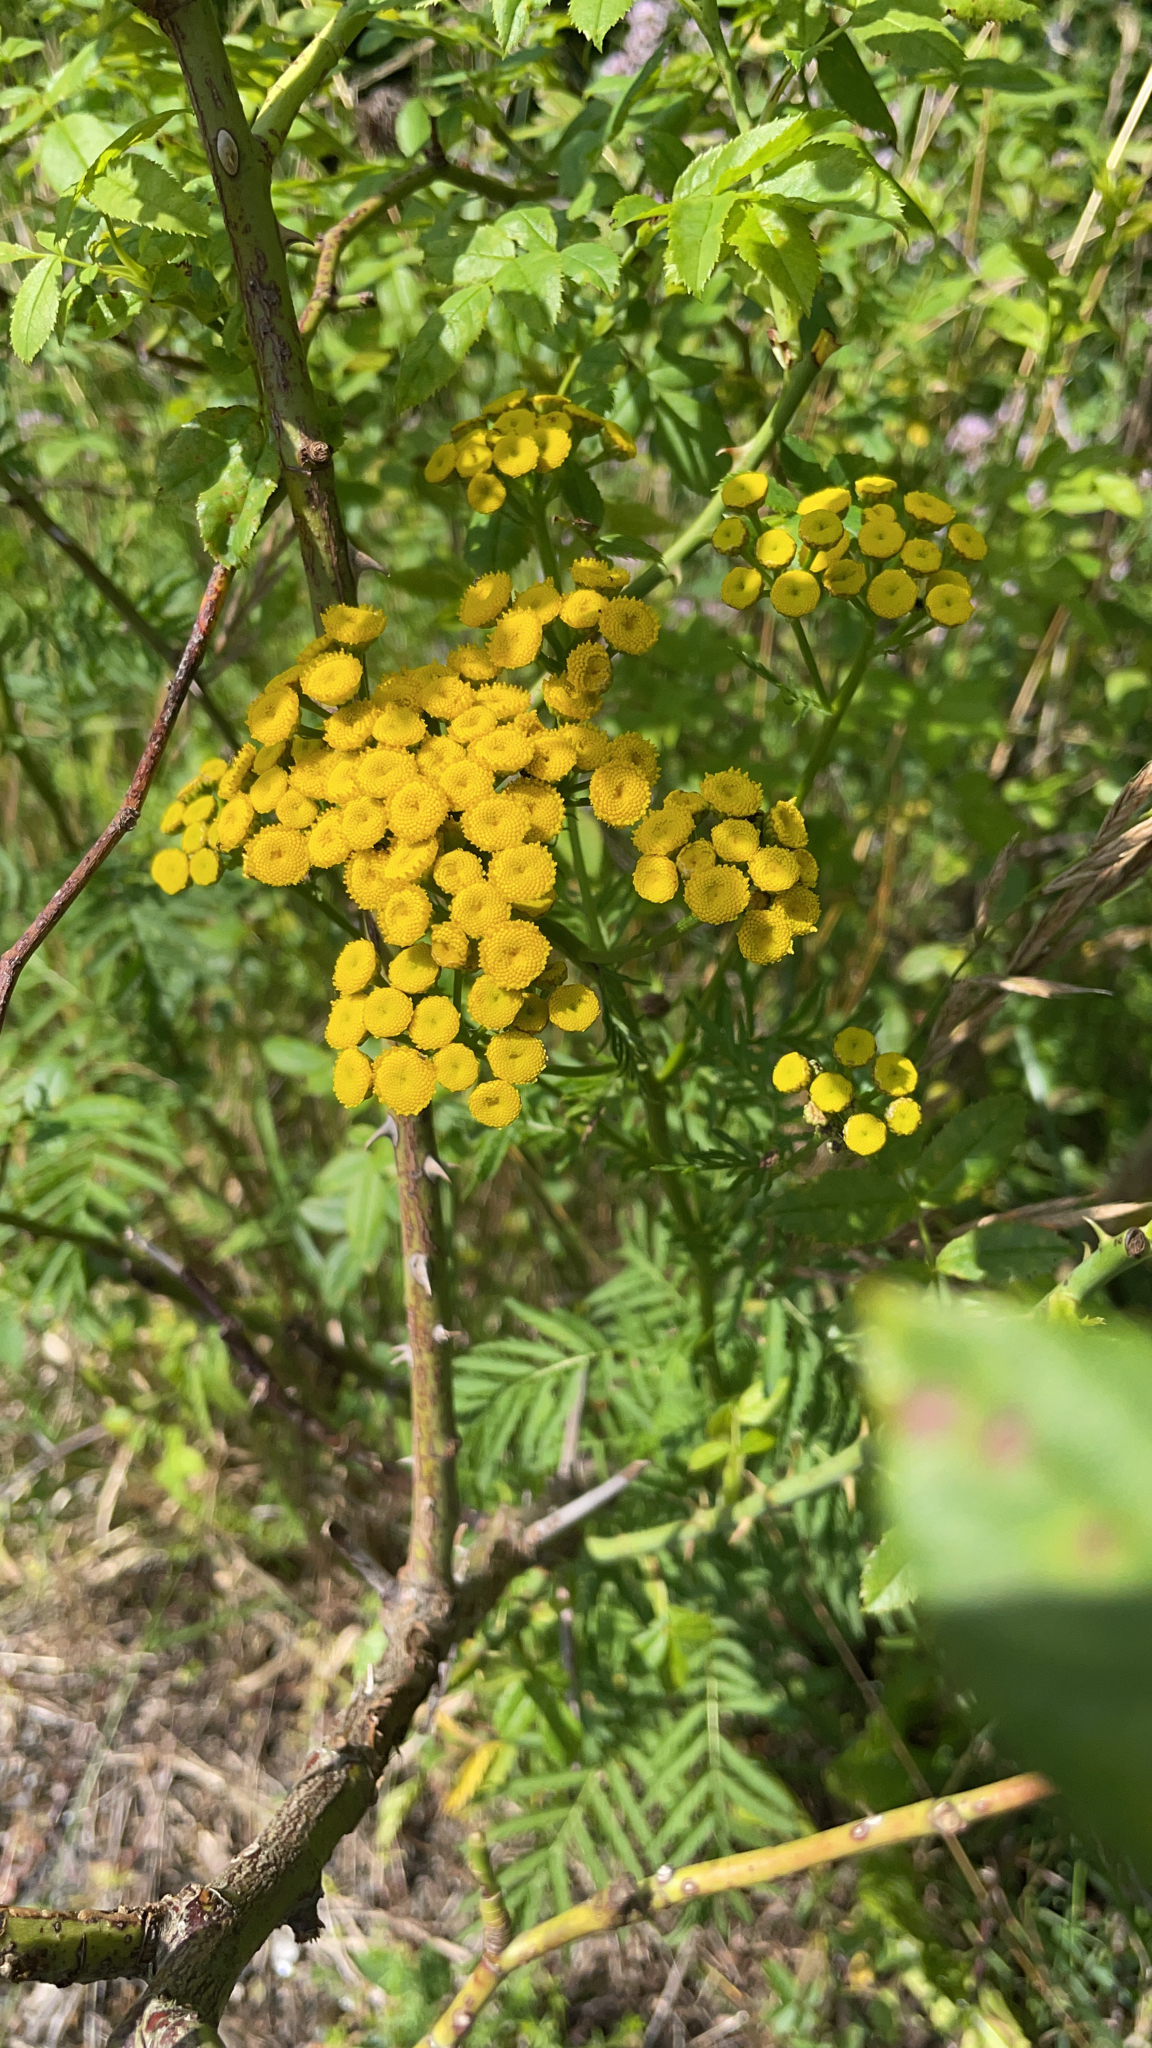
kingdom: Plantae
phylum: Tracheophyta
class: Magnoliopsida
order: Asterales
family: Asteraceae
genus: Tanacetum
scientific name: Tanacetum vulgare
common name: Common tansy
